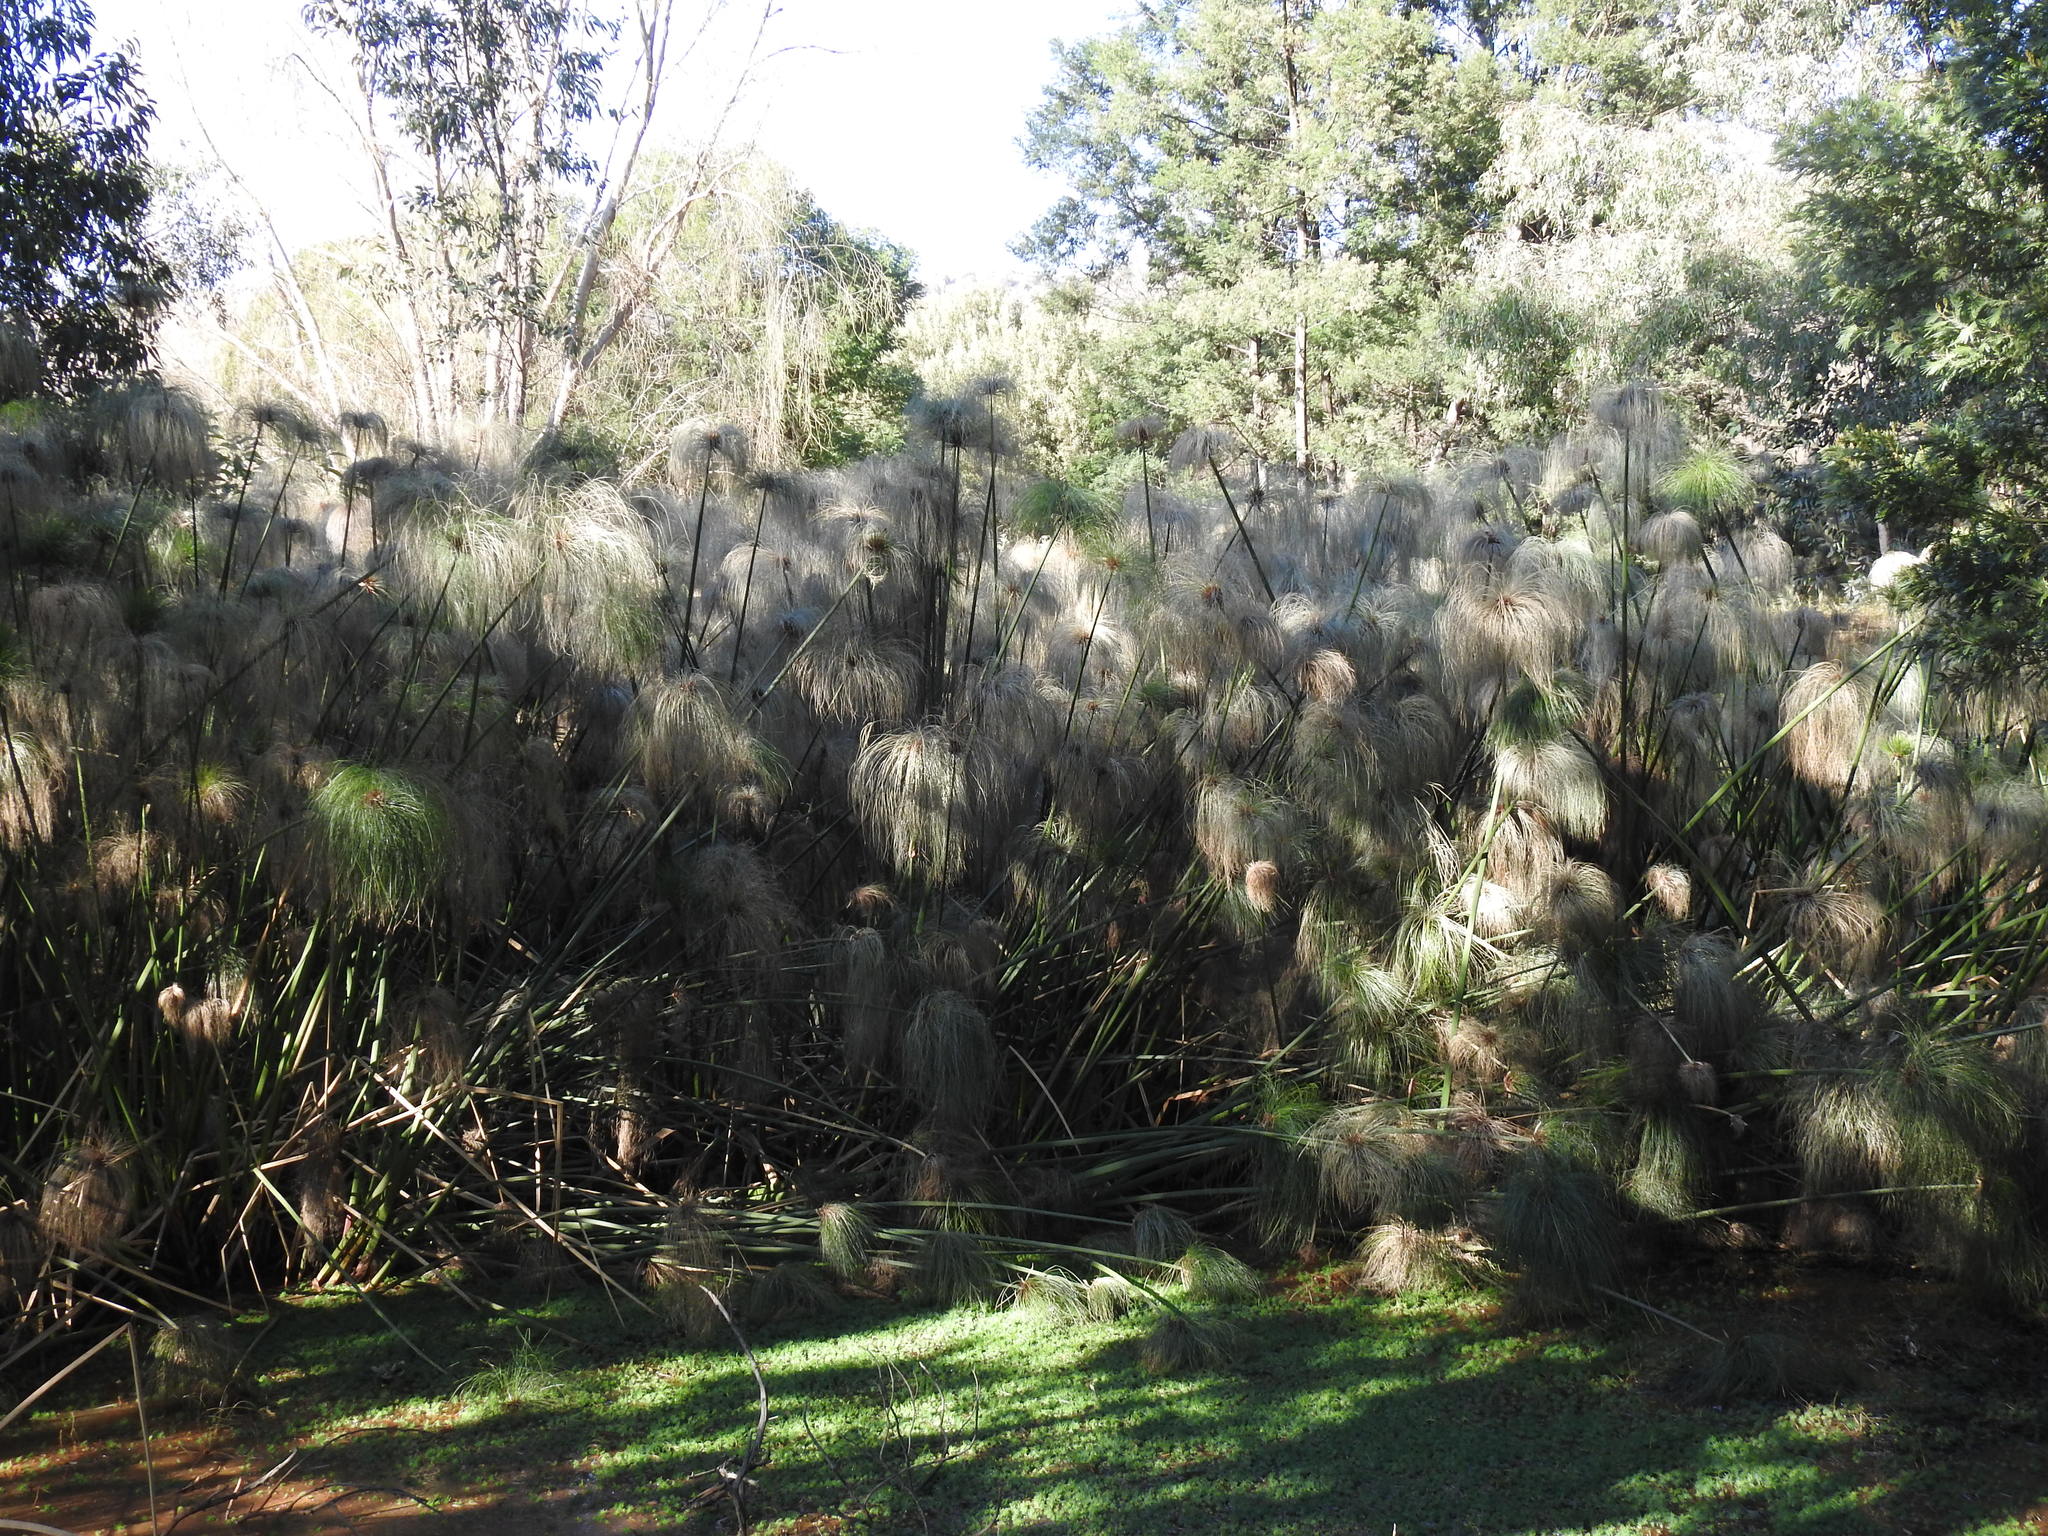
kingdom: Plantae
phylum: Tracheophyta
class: Liliopsida
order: Poales
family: Cyperaceae
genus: Cyperus
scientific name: Cyperus papyrus
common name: Papyrus
